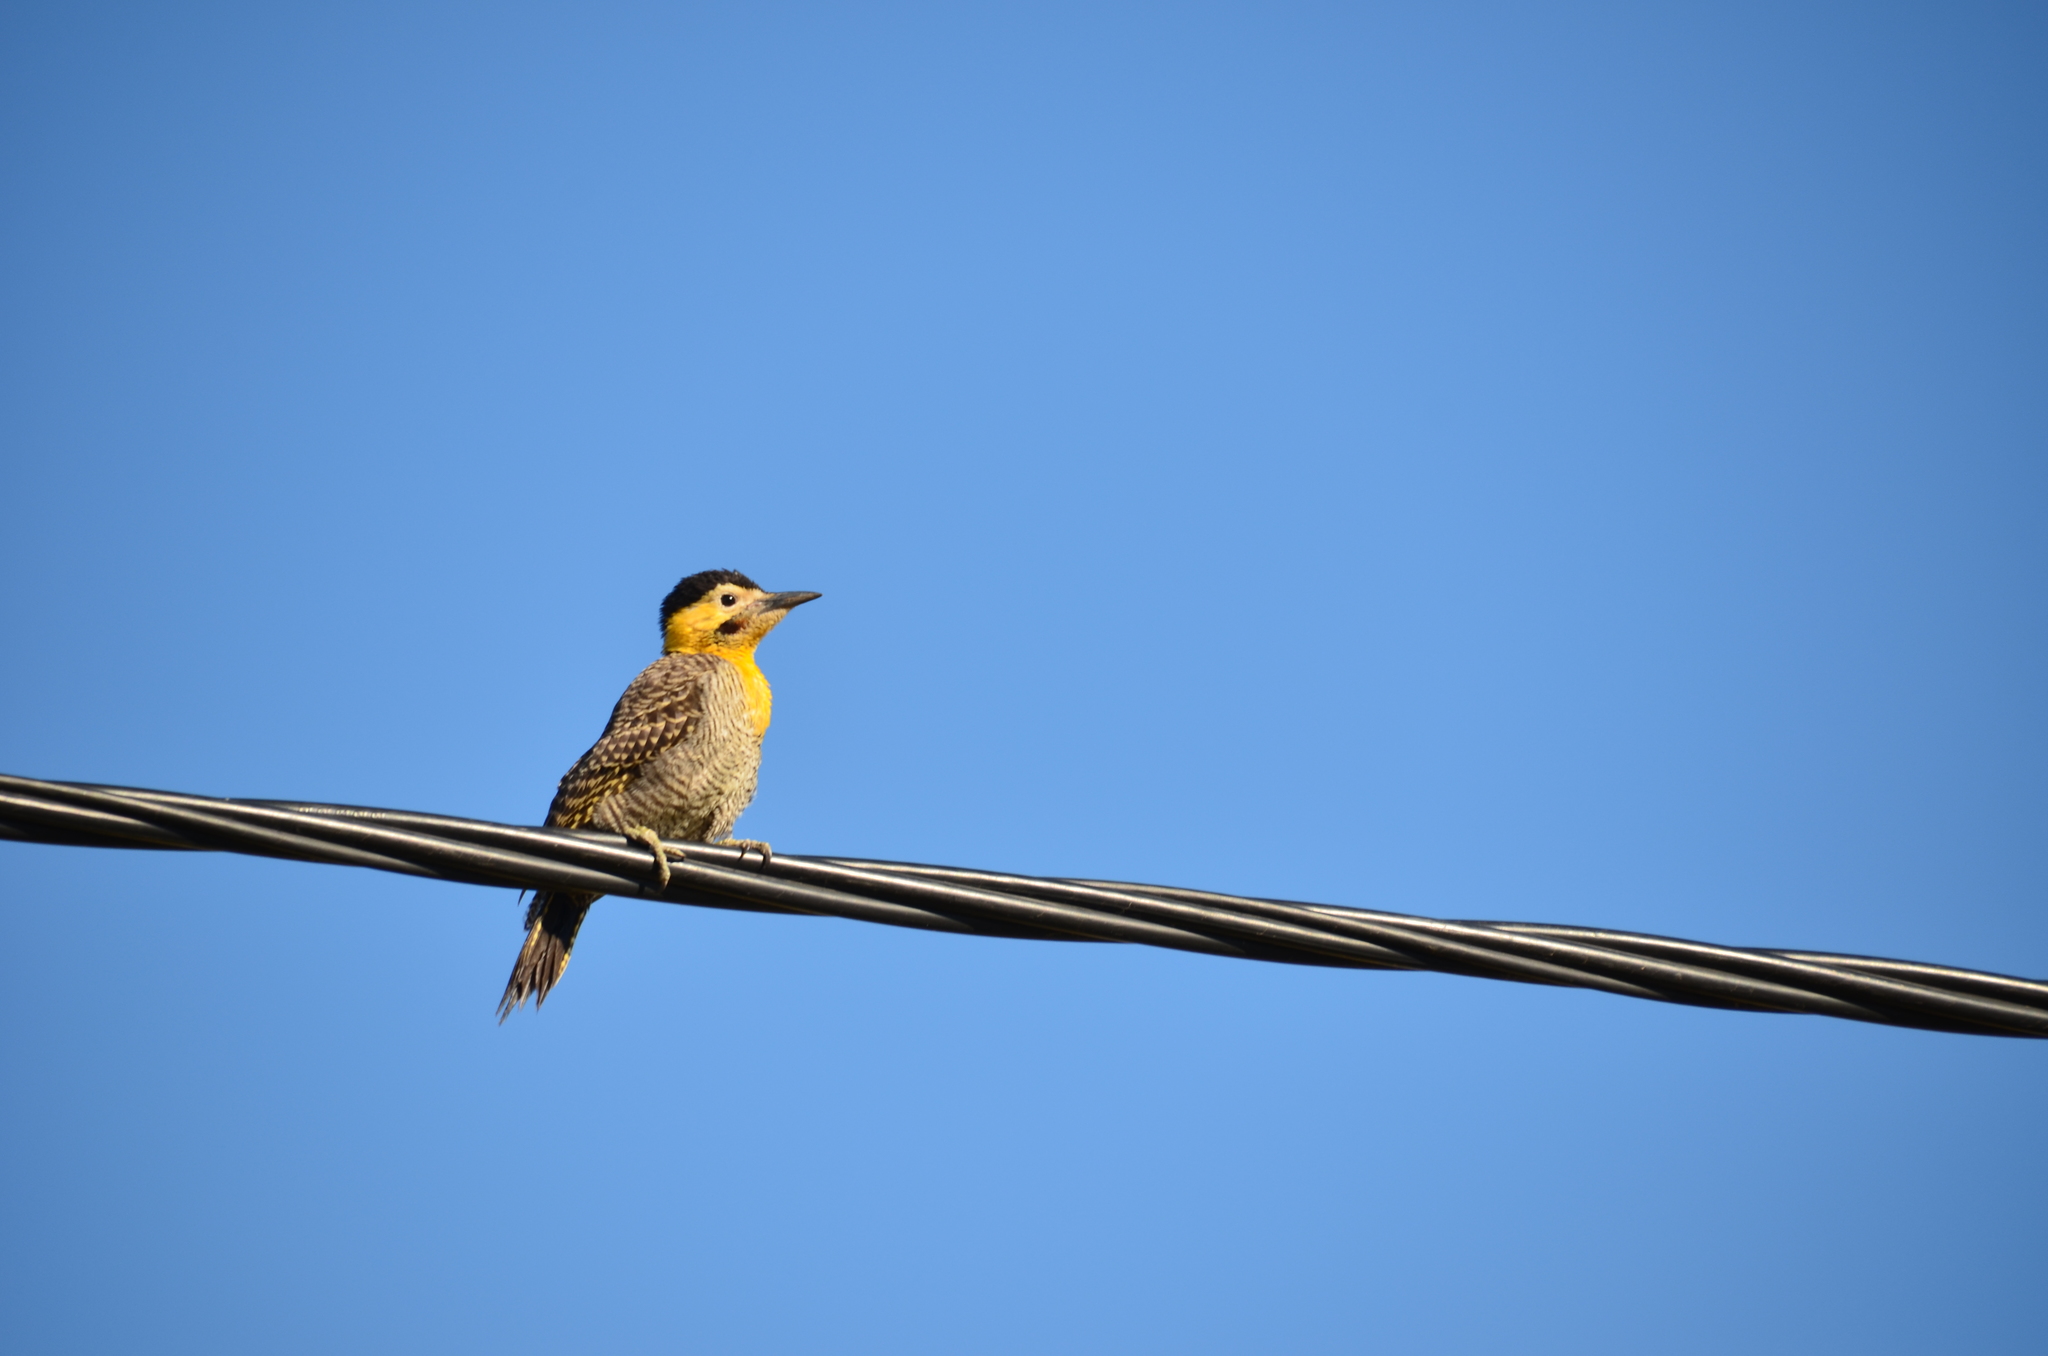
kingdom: Animalia
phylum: Chordata
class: Aves
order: Piciformes
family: Picidae
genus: Colaptes
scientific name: Colaptes campestris
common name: Campo flicker
